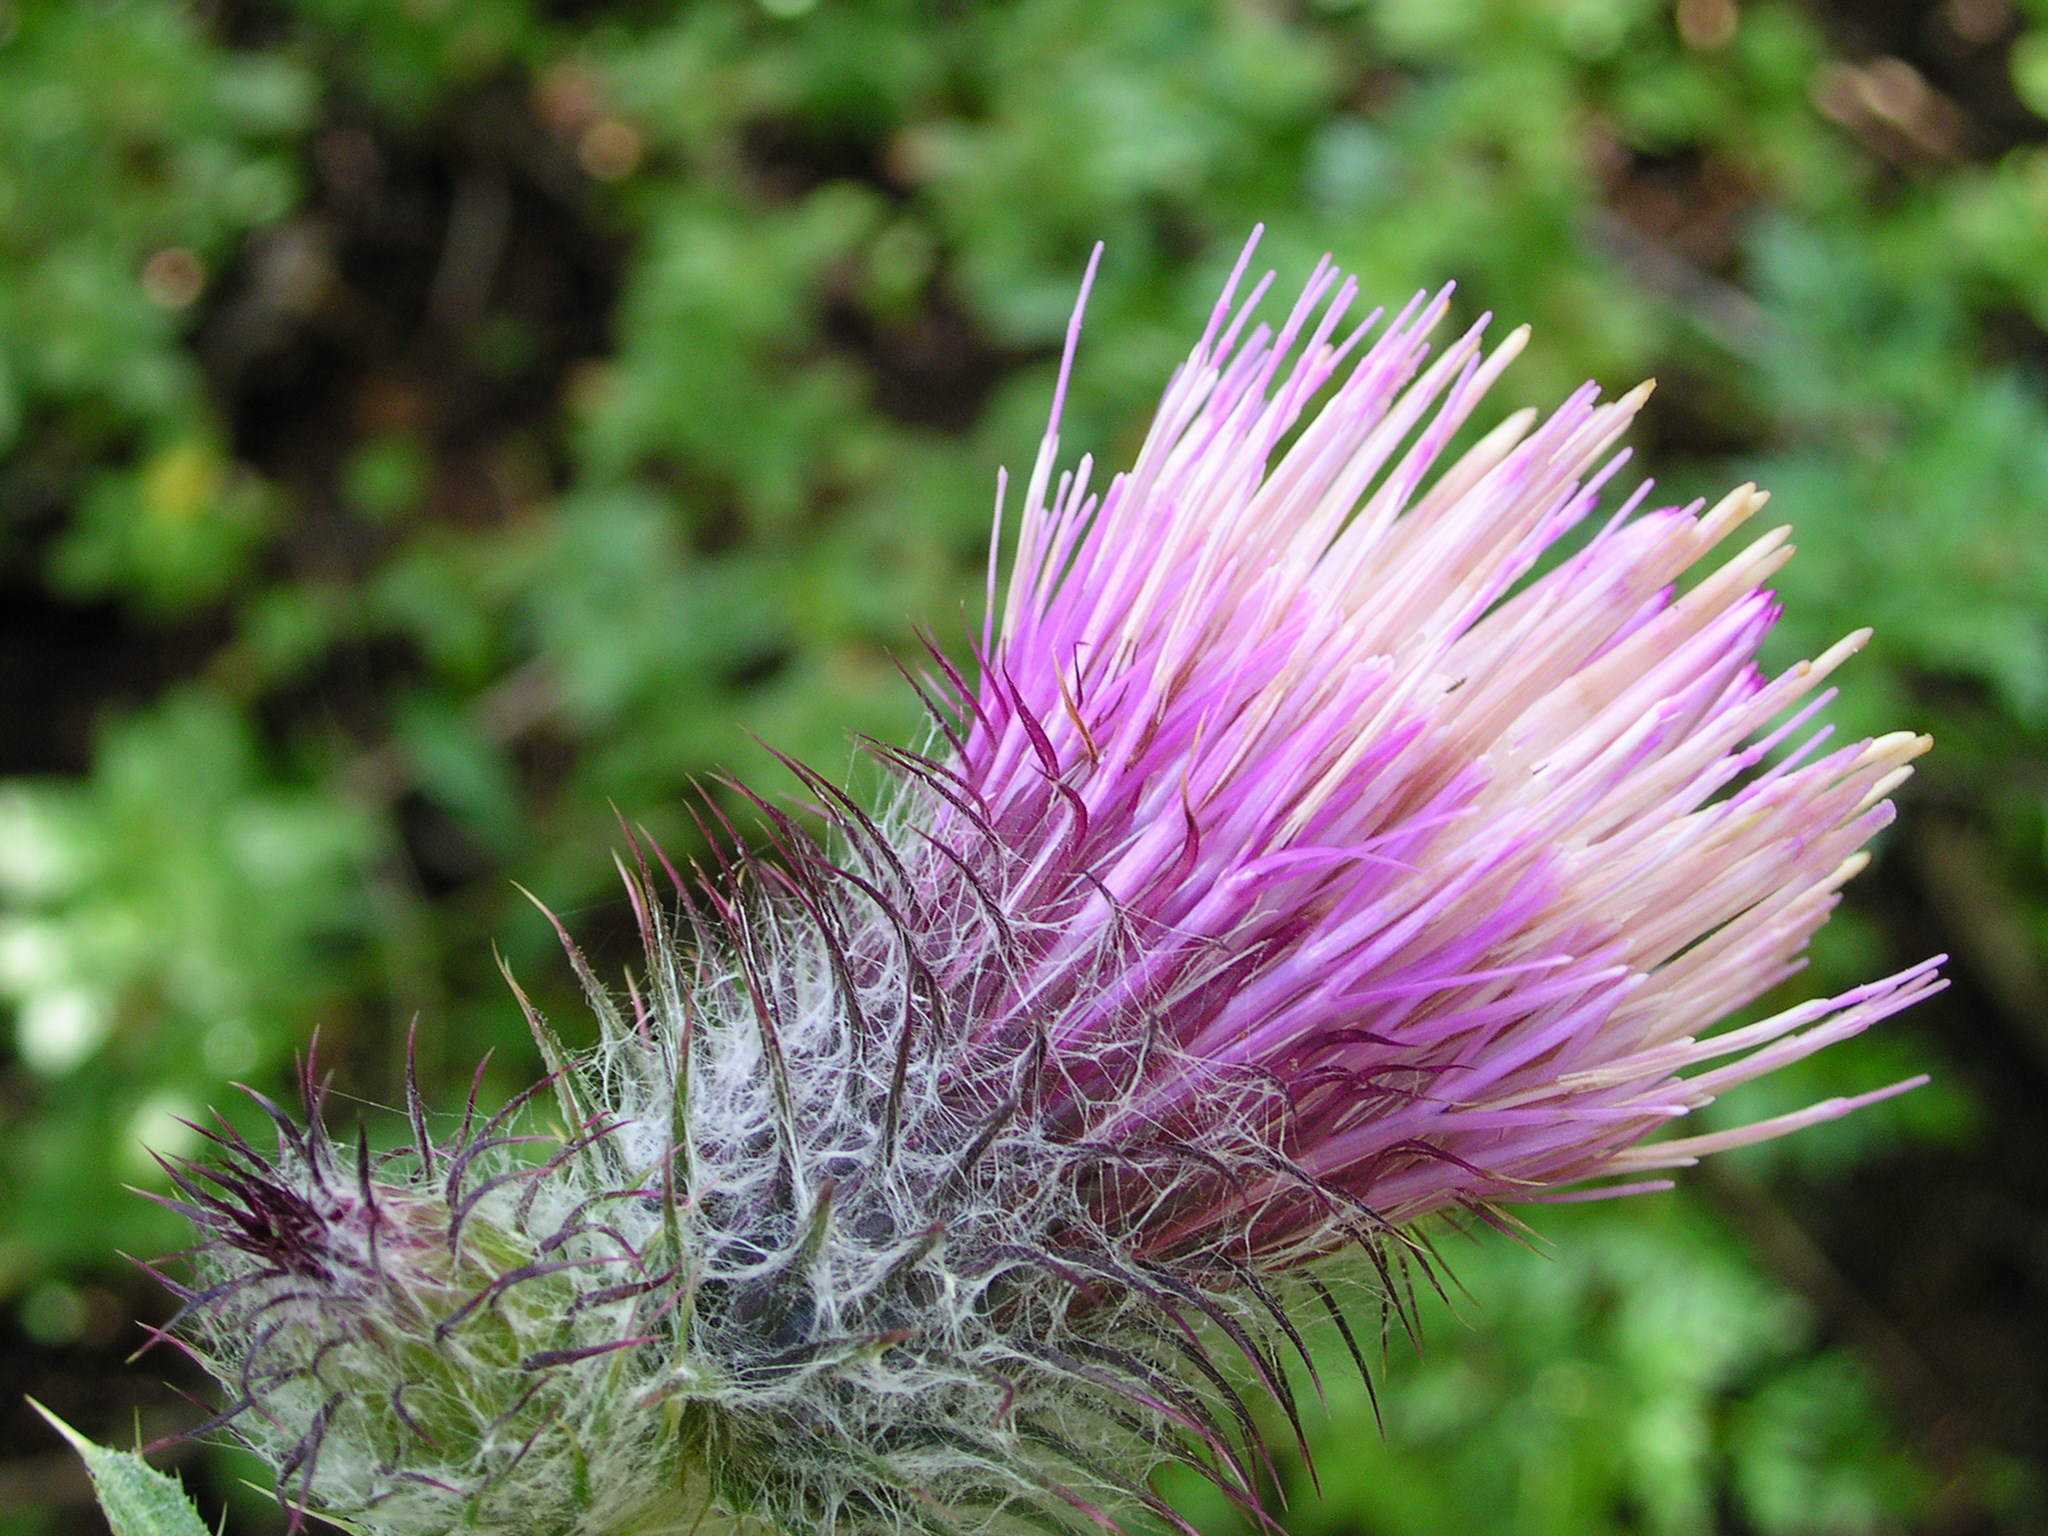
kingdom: Plantae
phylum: Tracheophyta
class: Magnoliopsida
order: Asterales
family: Asteraceae
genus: Cirsium
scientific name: Cirsium edule
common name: Indian thistle
